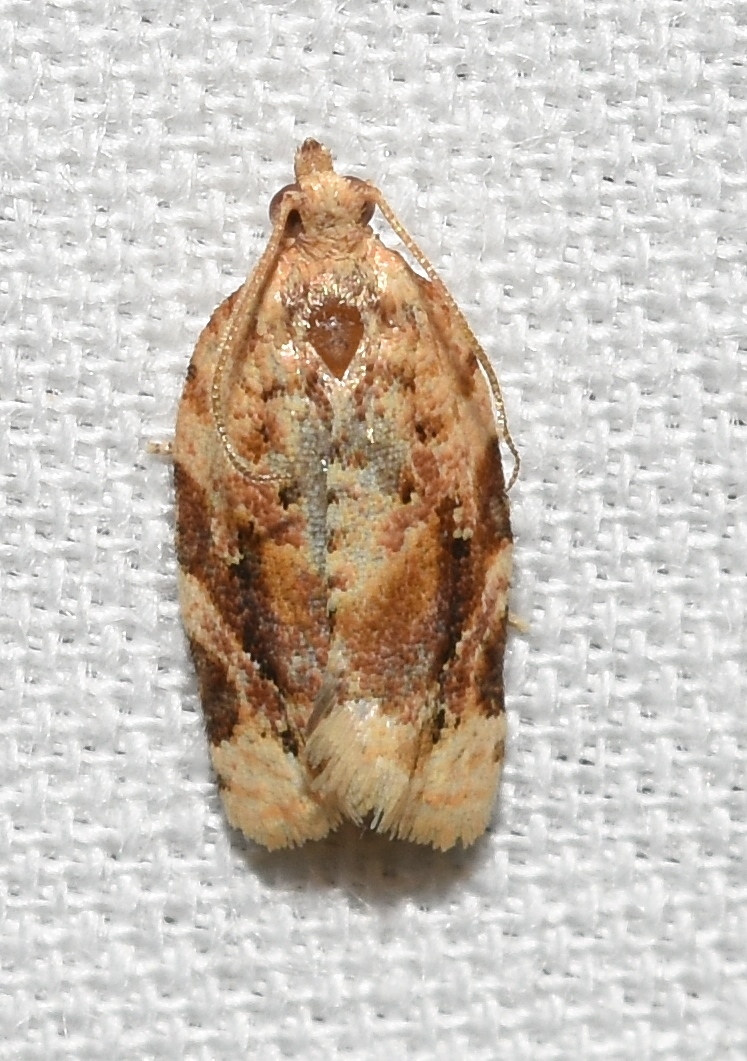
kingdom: Animalia
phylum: Arthropoda
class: Insecta
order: Lepidoptera
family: Tortricidae
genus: Argyrotaenia
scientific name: Argyrotaenia velutinana
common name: Red-banded leafroller moth
